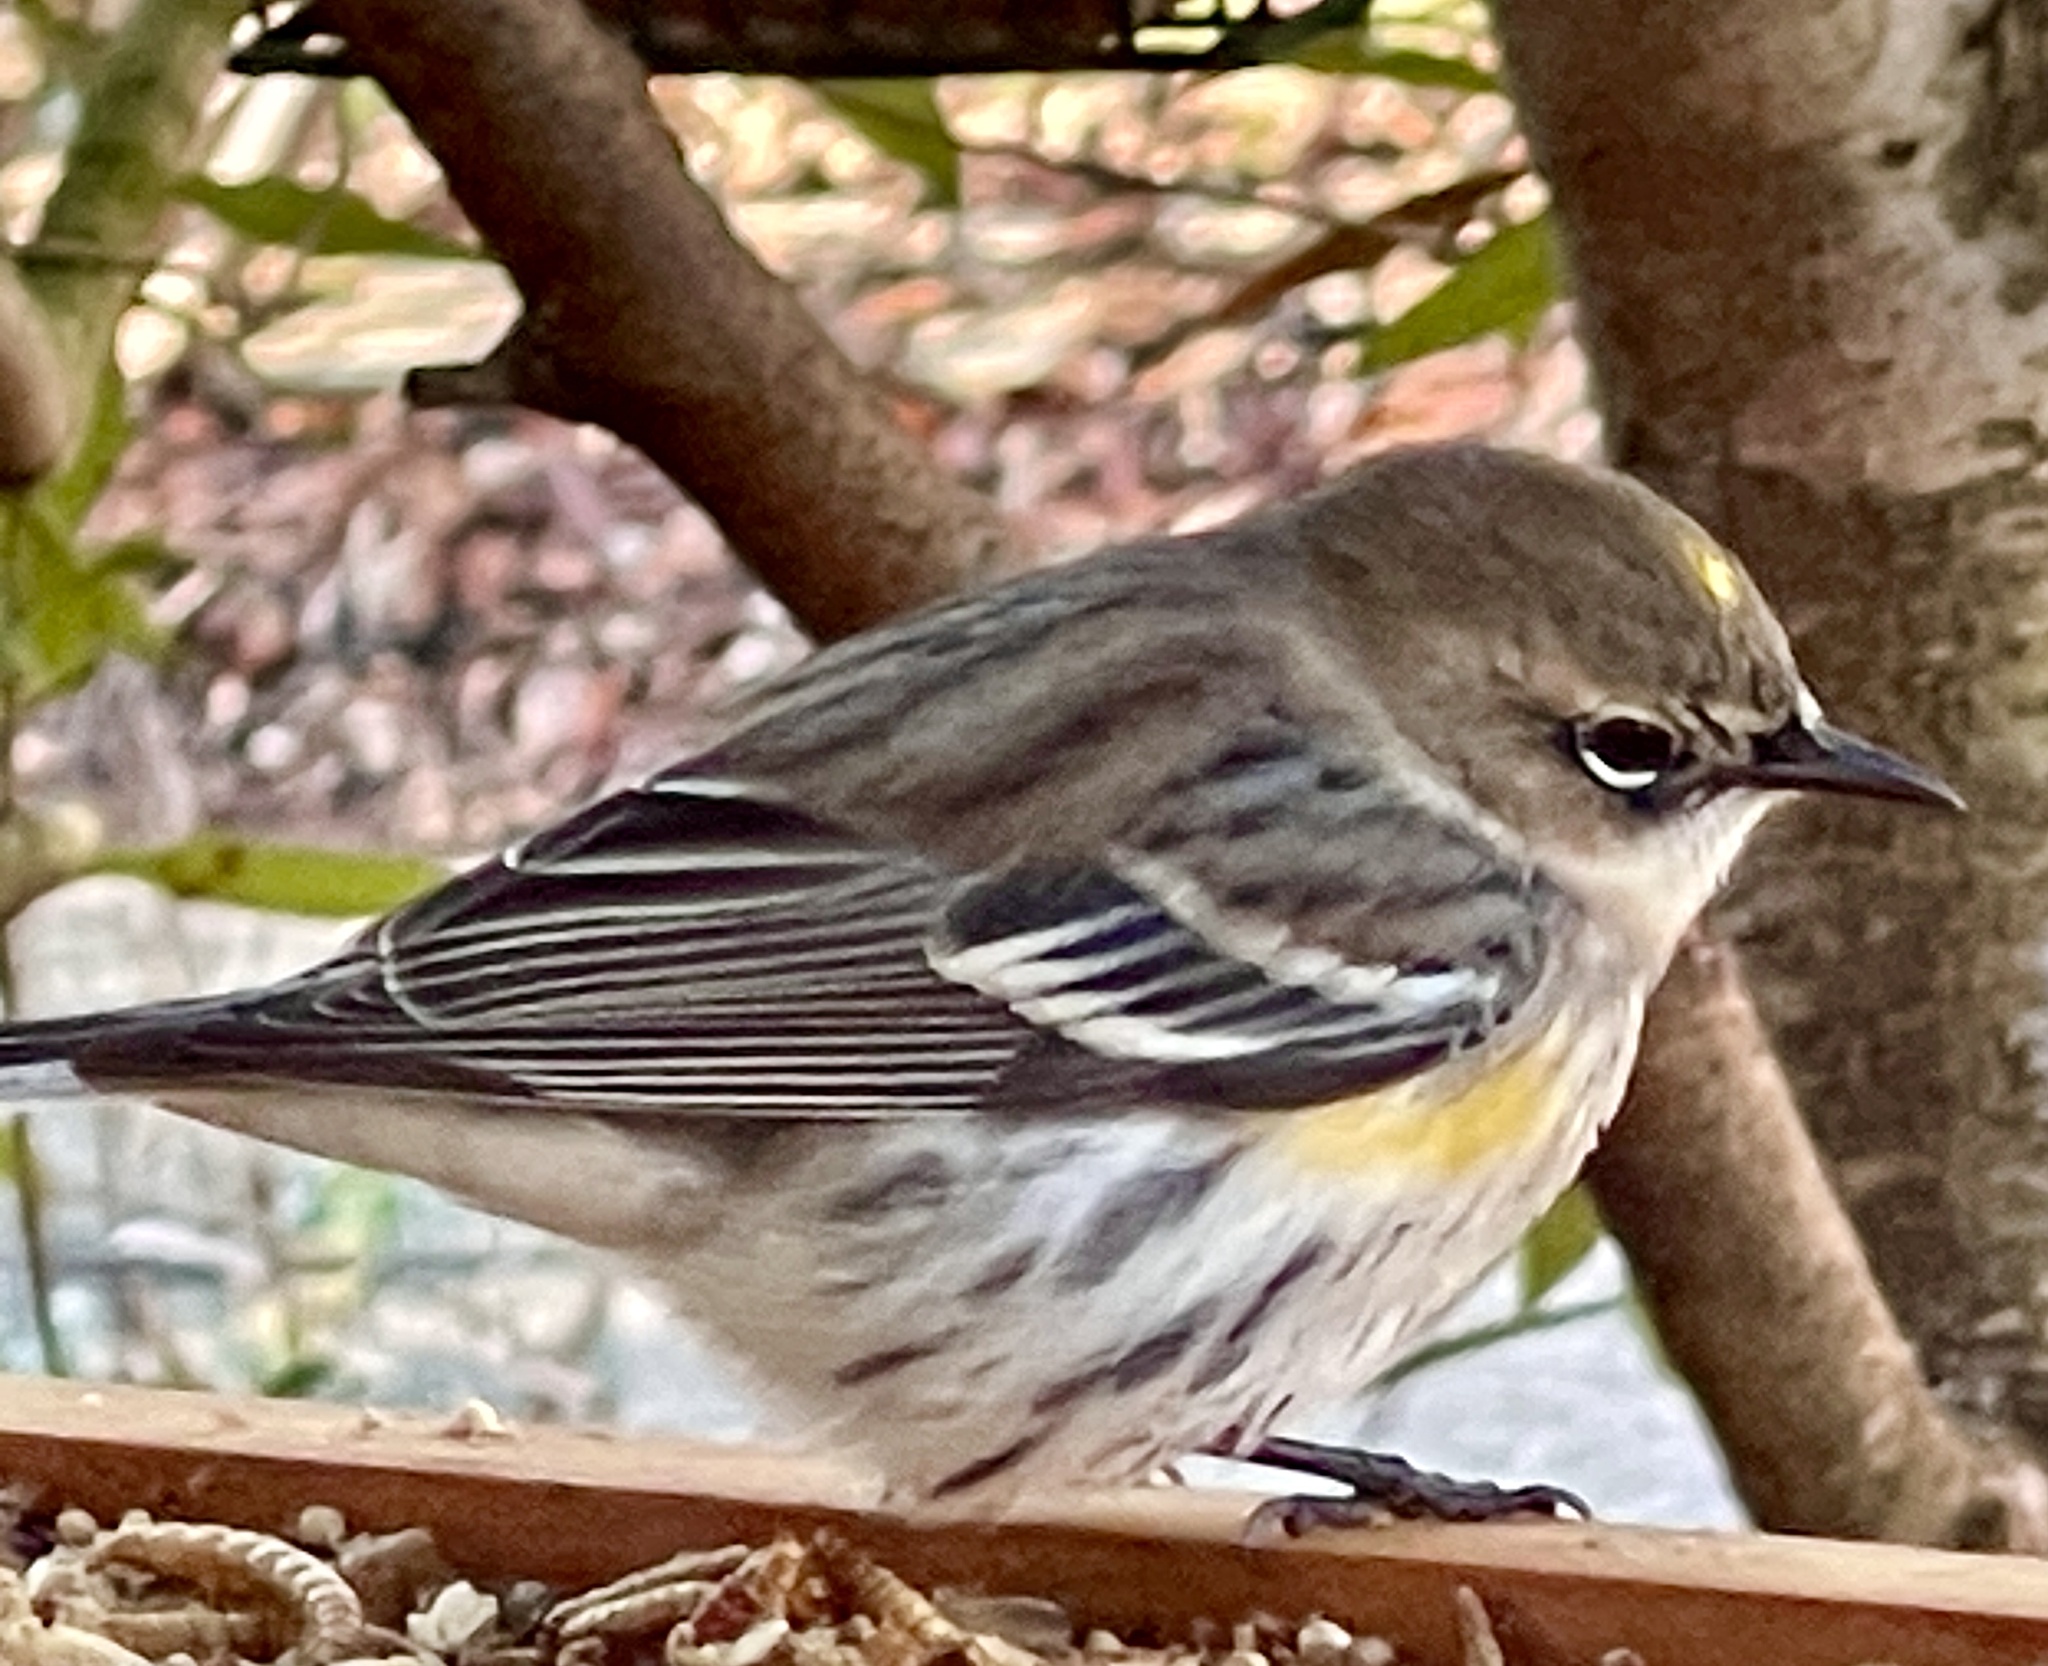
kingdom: Animalia
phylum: Chordata
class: Aves
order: Passeriformes
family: Parulidae
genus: Setophaga
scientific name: Setophaga coronata
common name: Myrtle warbler
